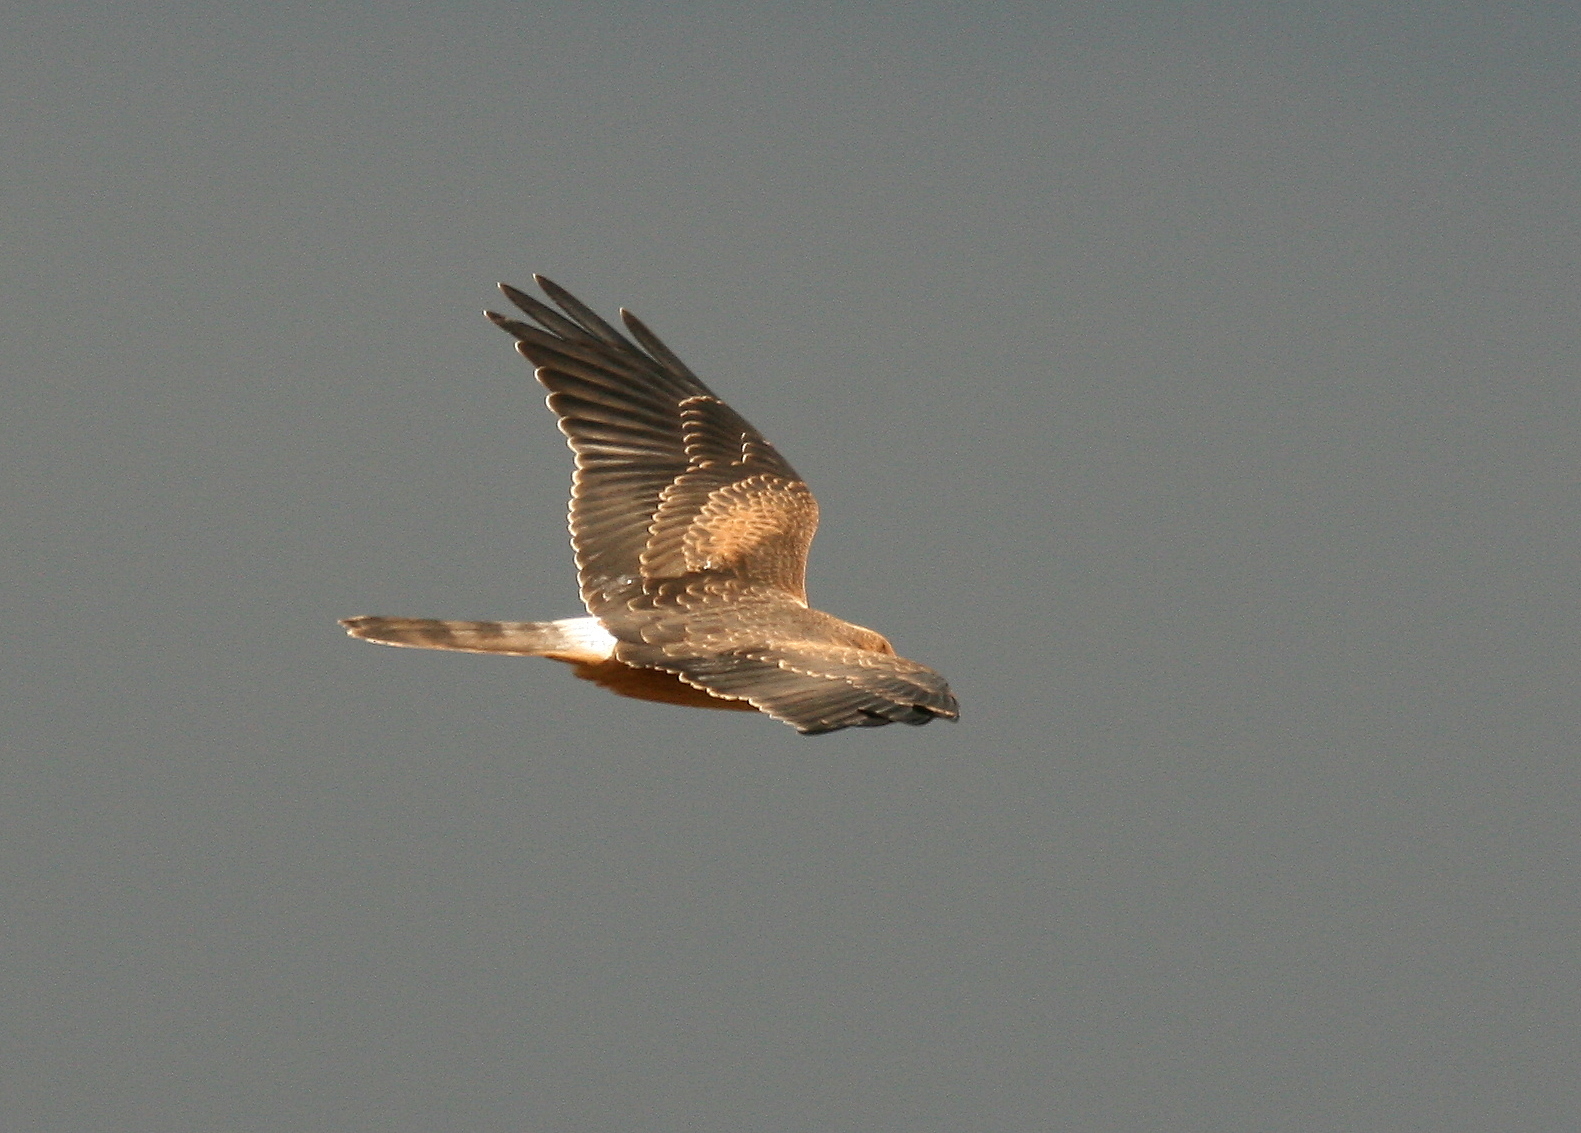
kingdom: Animalia
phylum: Chordata
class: Aves
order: Accipitriformes
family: Accipitridae
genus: Circus
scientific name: Circus pygargus
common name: Montagu's harrier
